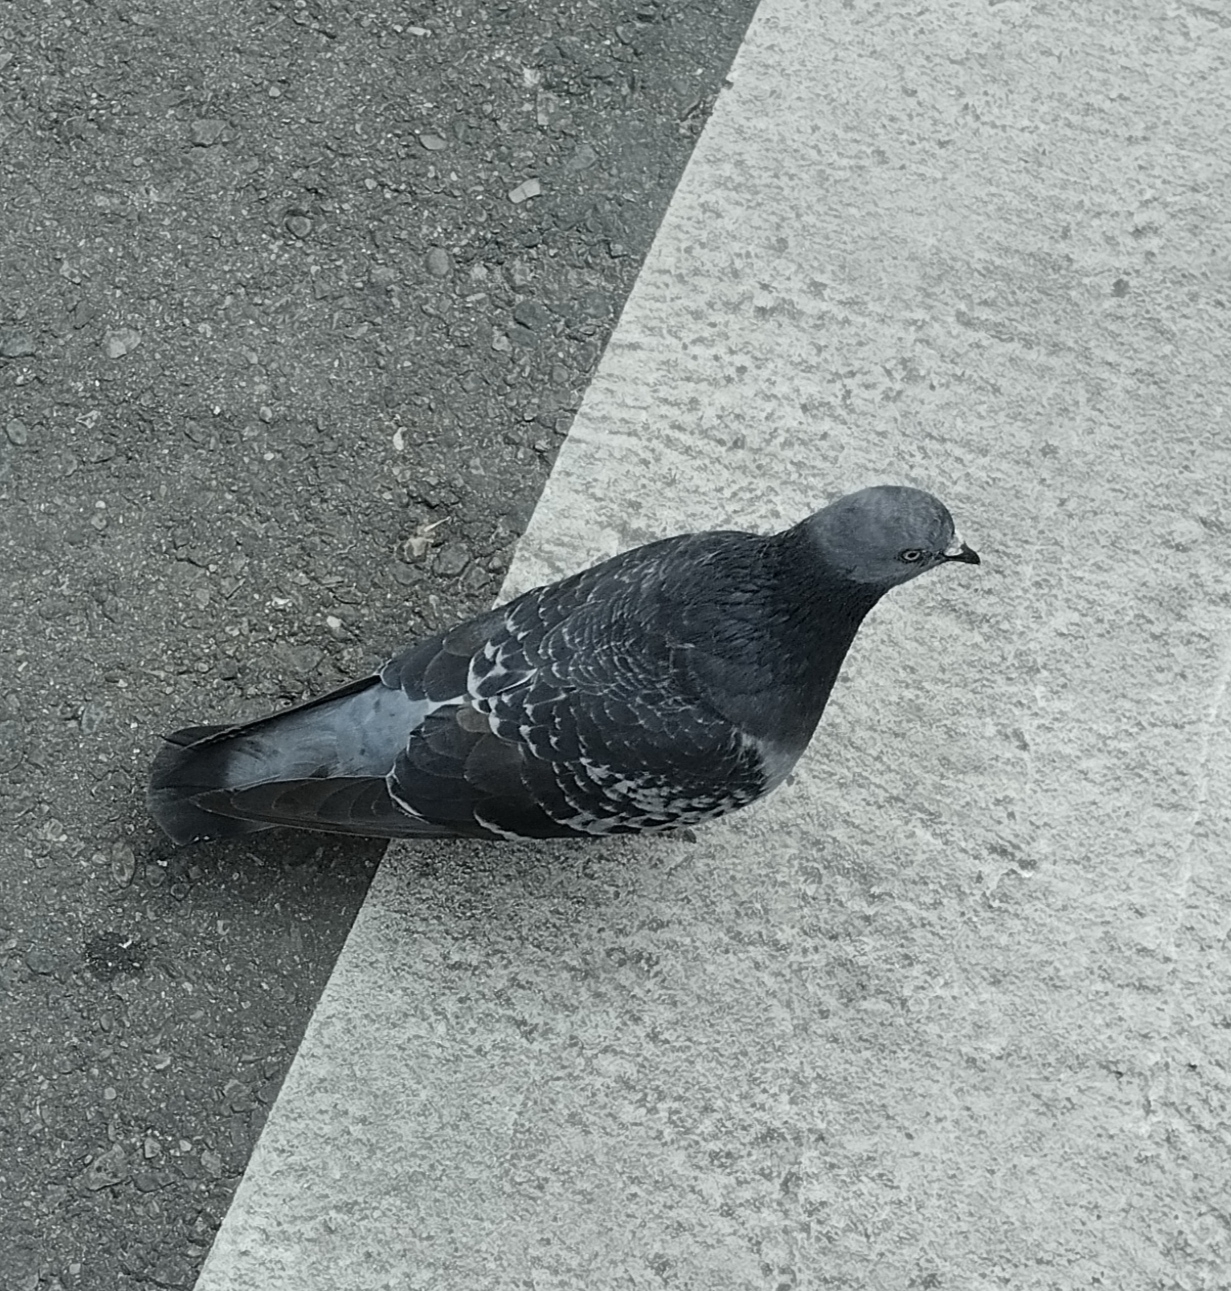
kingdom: Animalia
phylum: Chordata
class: Aves
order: Columbiformes
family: Columbidae
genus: Columba
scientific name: Columba livia
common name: Rock pigeon
